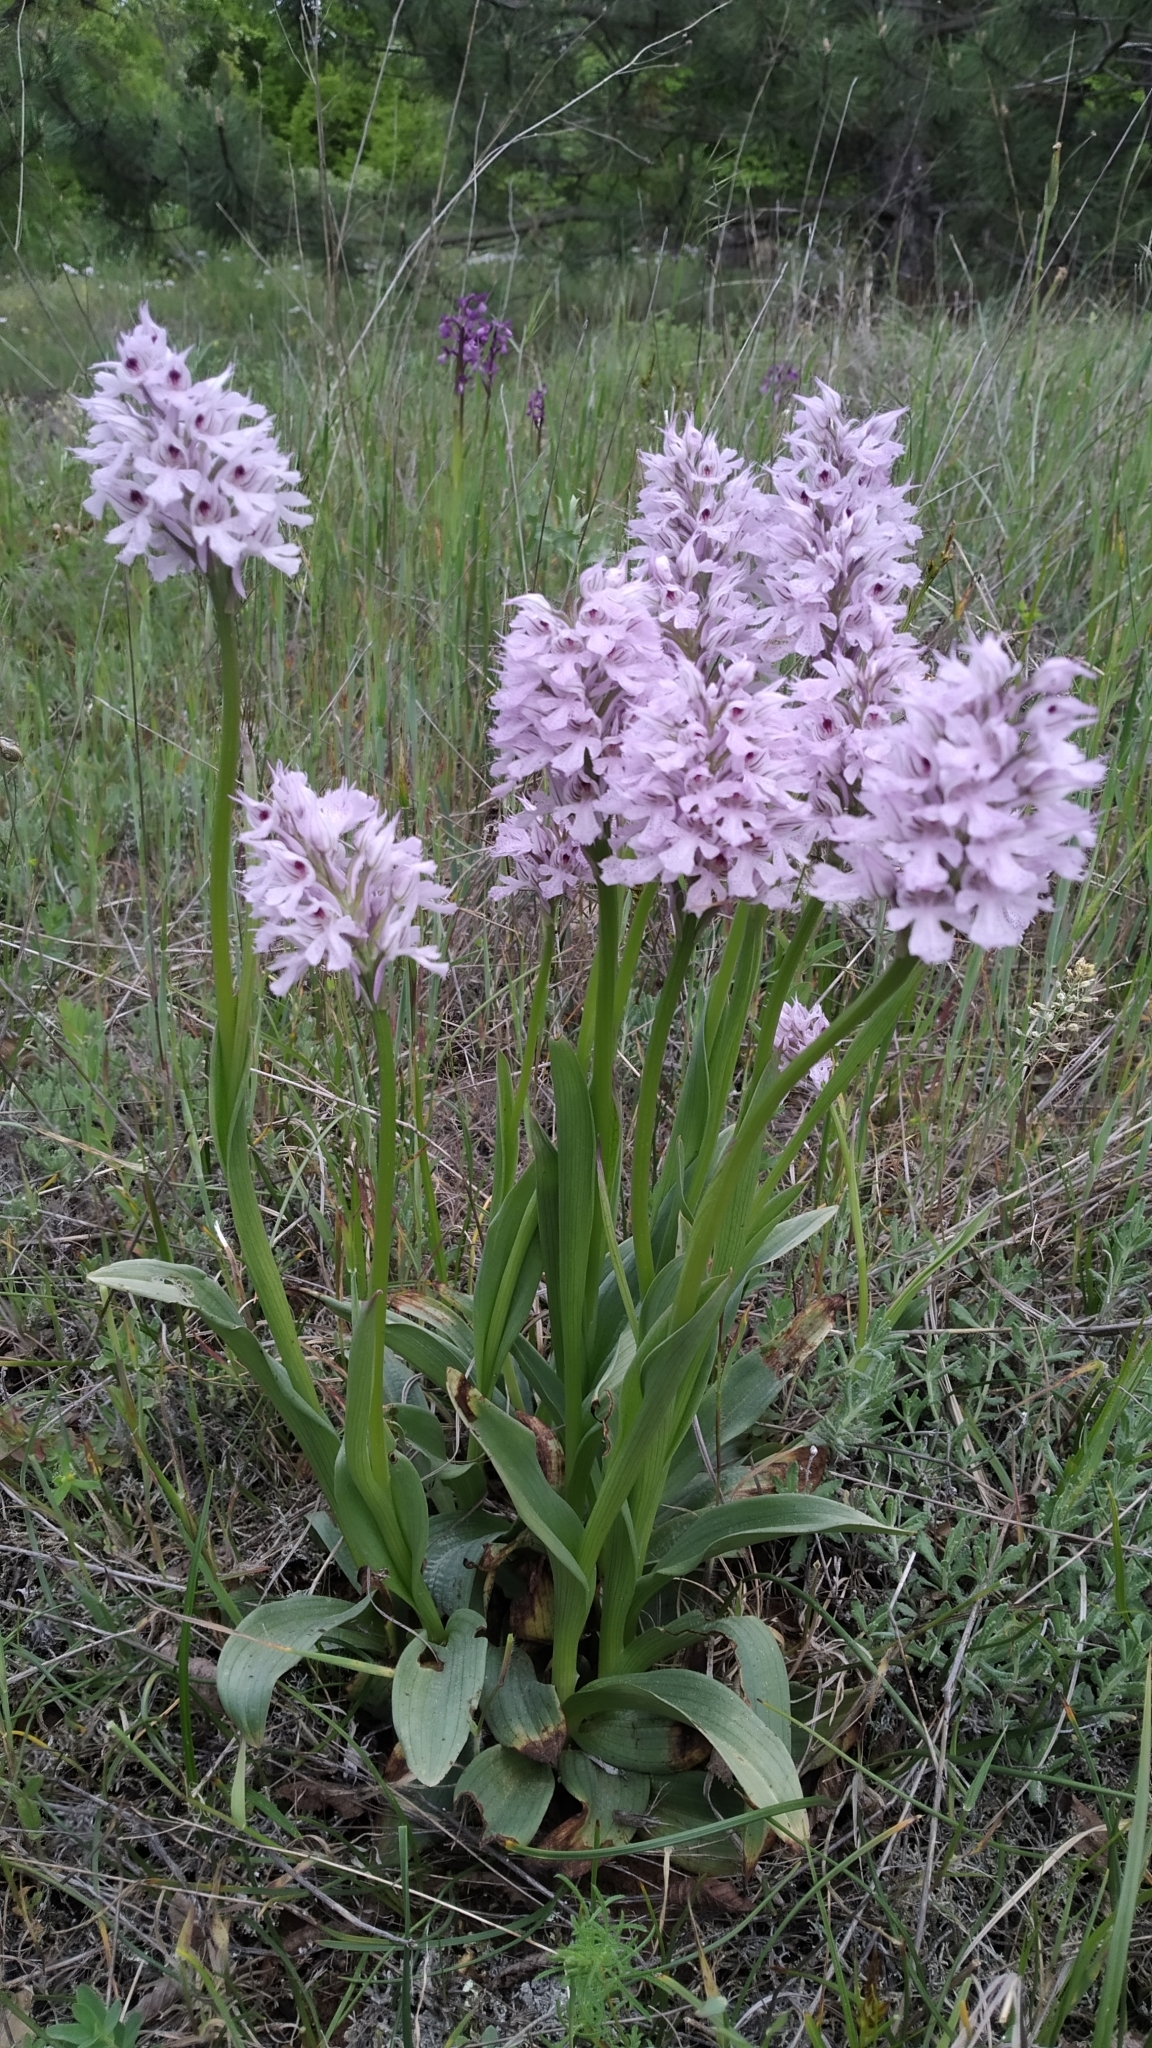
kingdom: Plantae
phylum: Tracheophyta
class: Liliopsida
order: Asparagales
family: Orchidaceae
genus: Neotinea
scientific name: Neotinea tridentata
